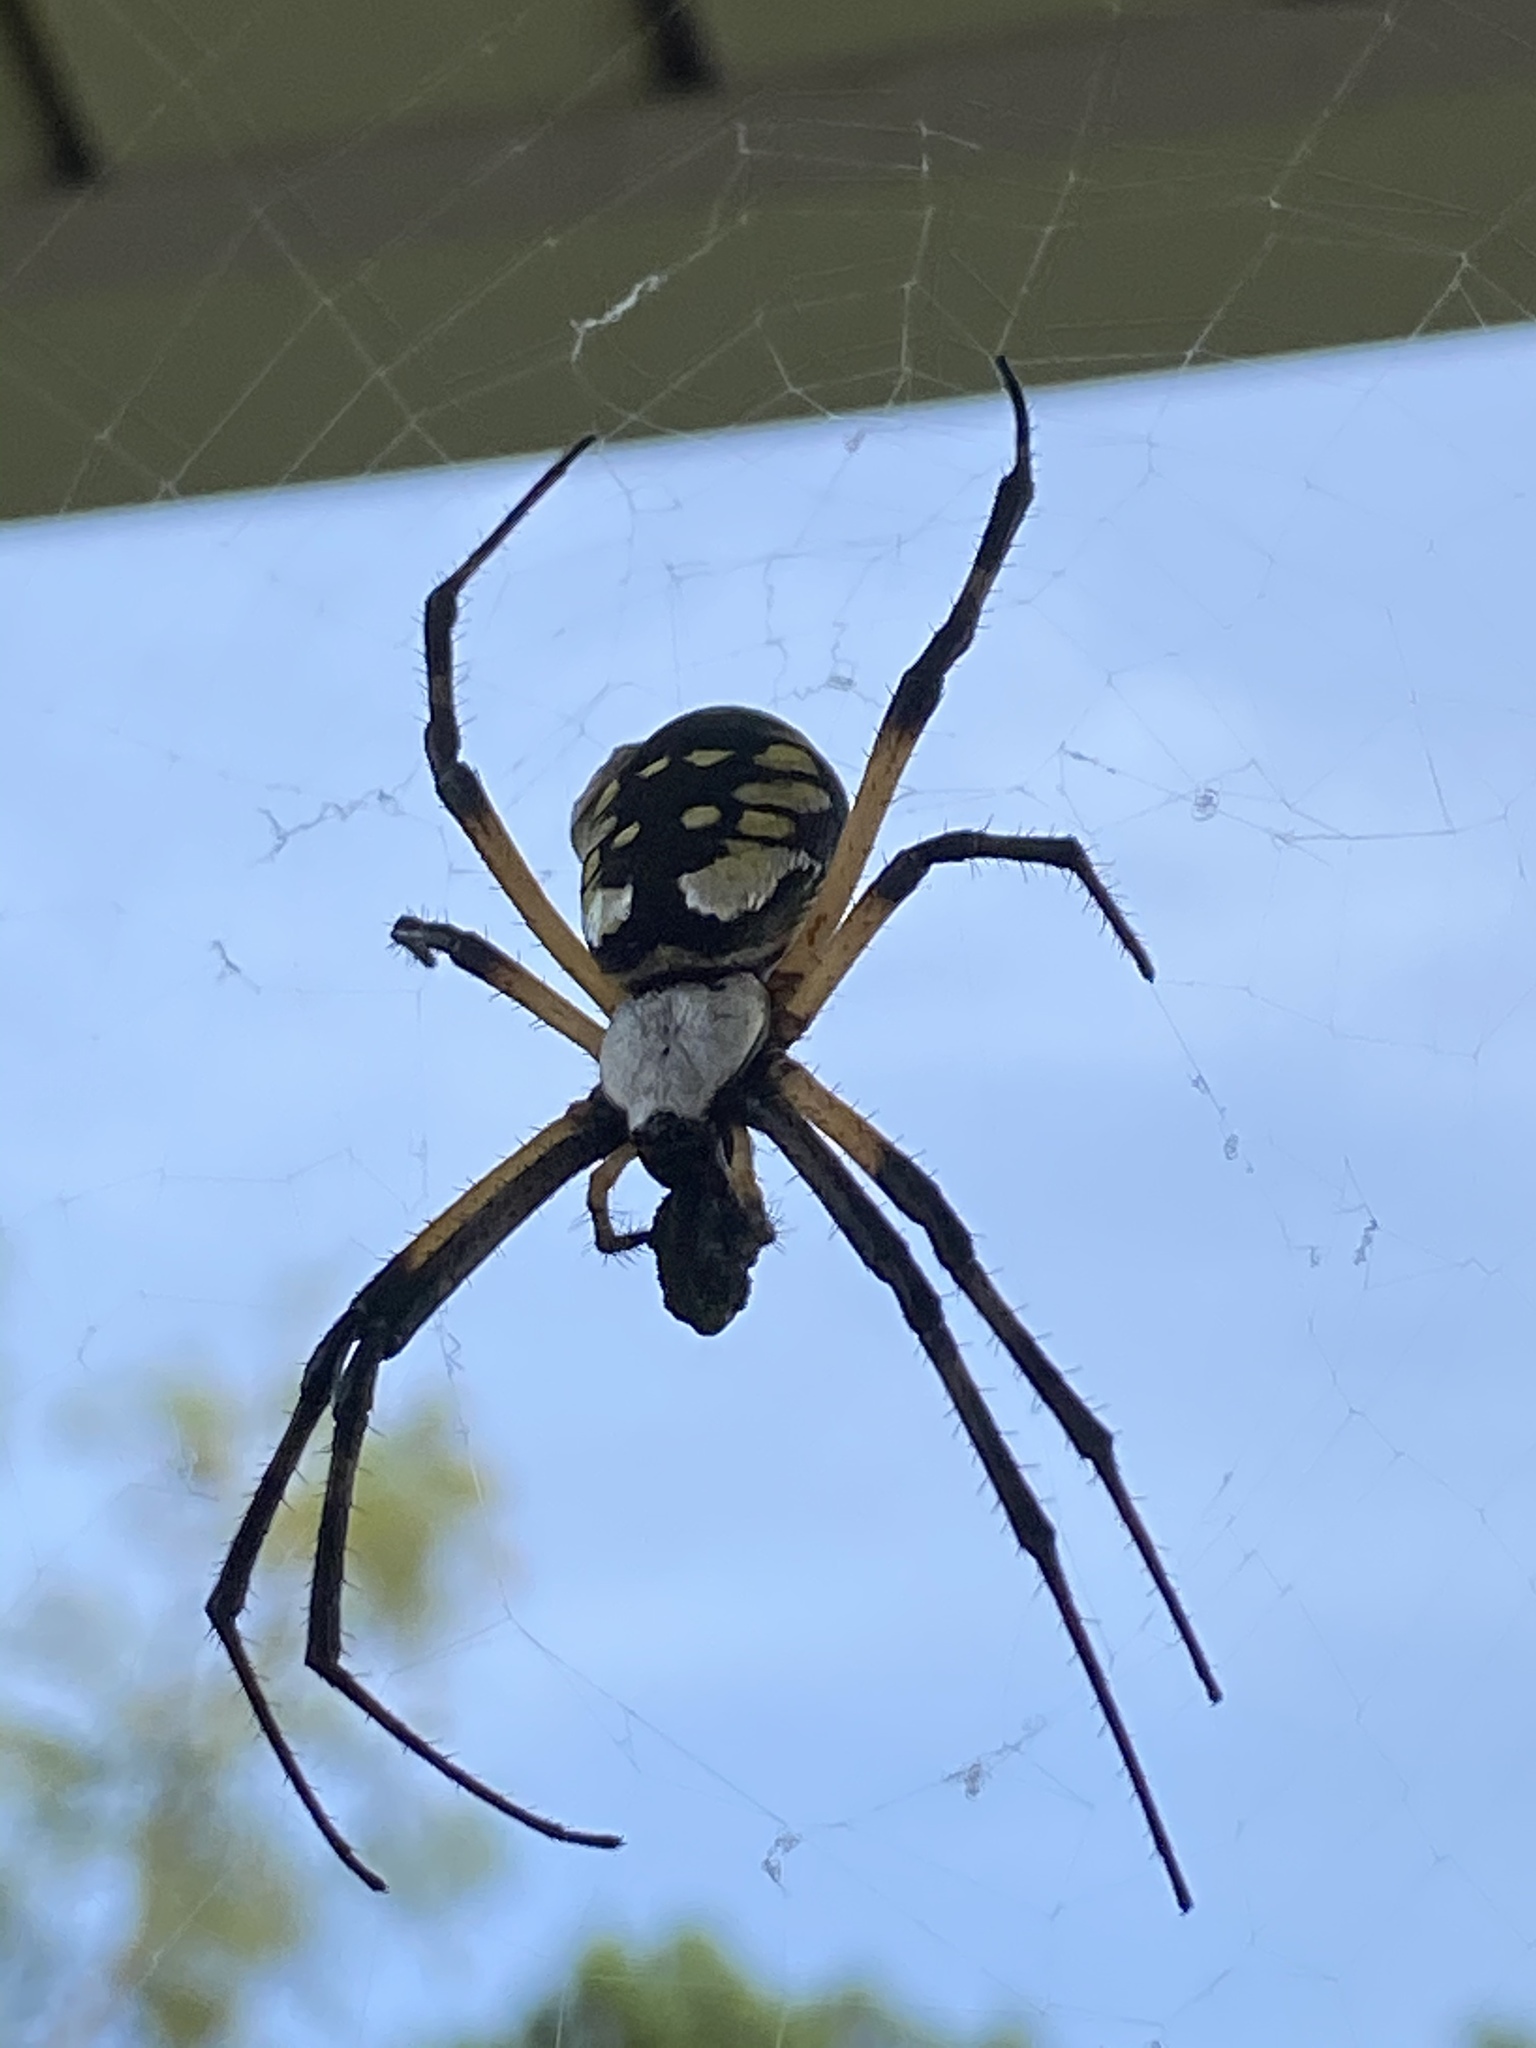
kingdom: Animalia
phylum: Arthropoda
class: Arachnida
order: Araneae
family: Araneidae
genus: Argiope
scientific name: Argiope aurantia
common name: Orb weavers
